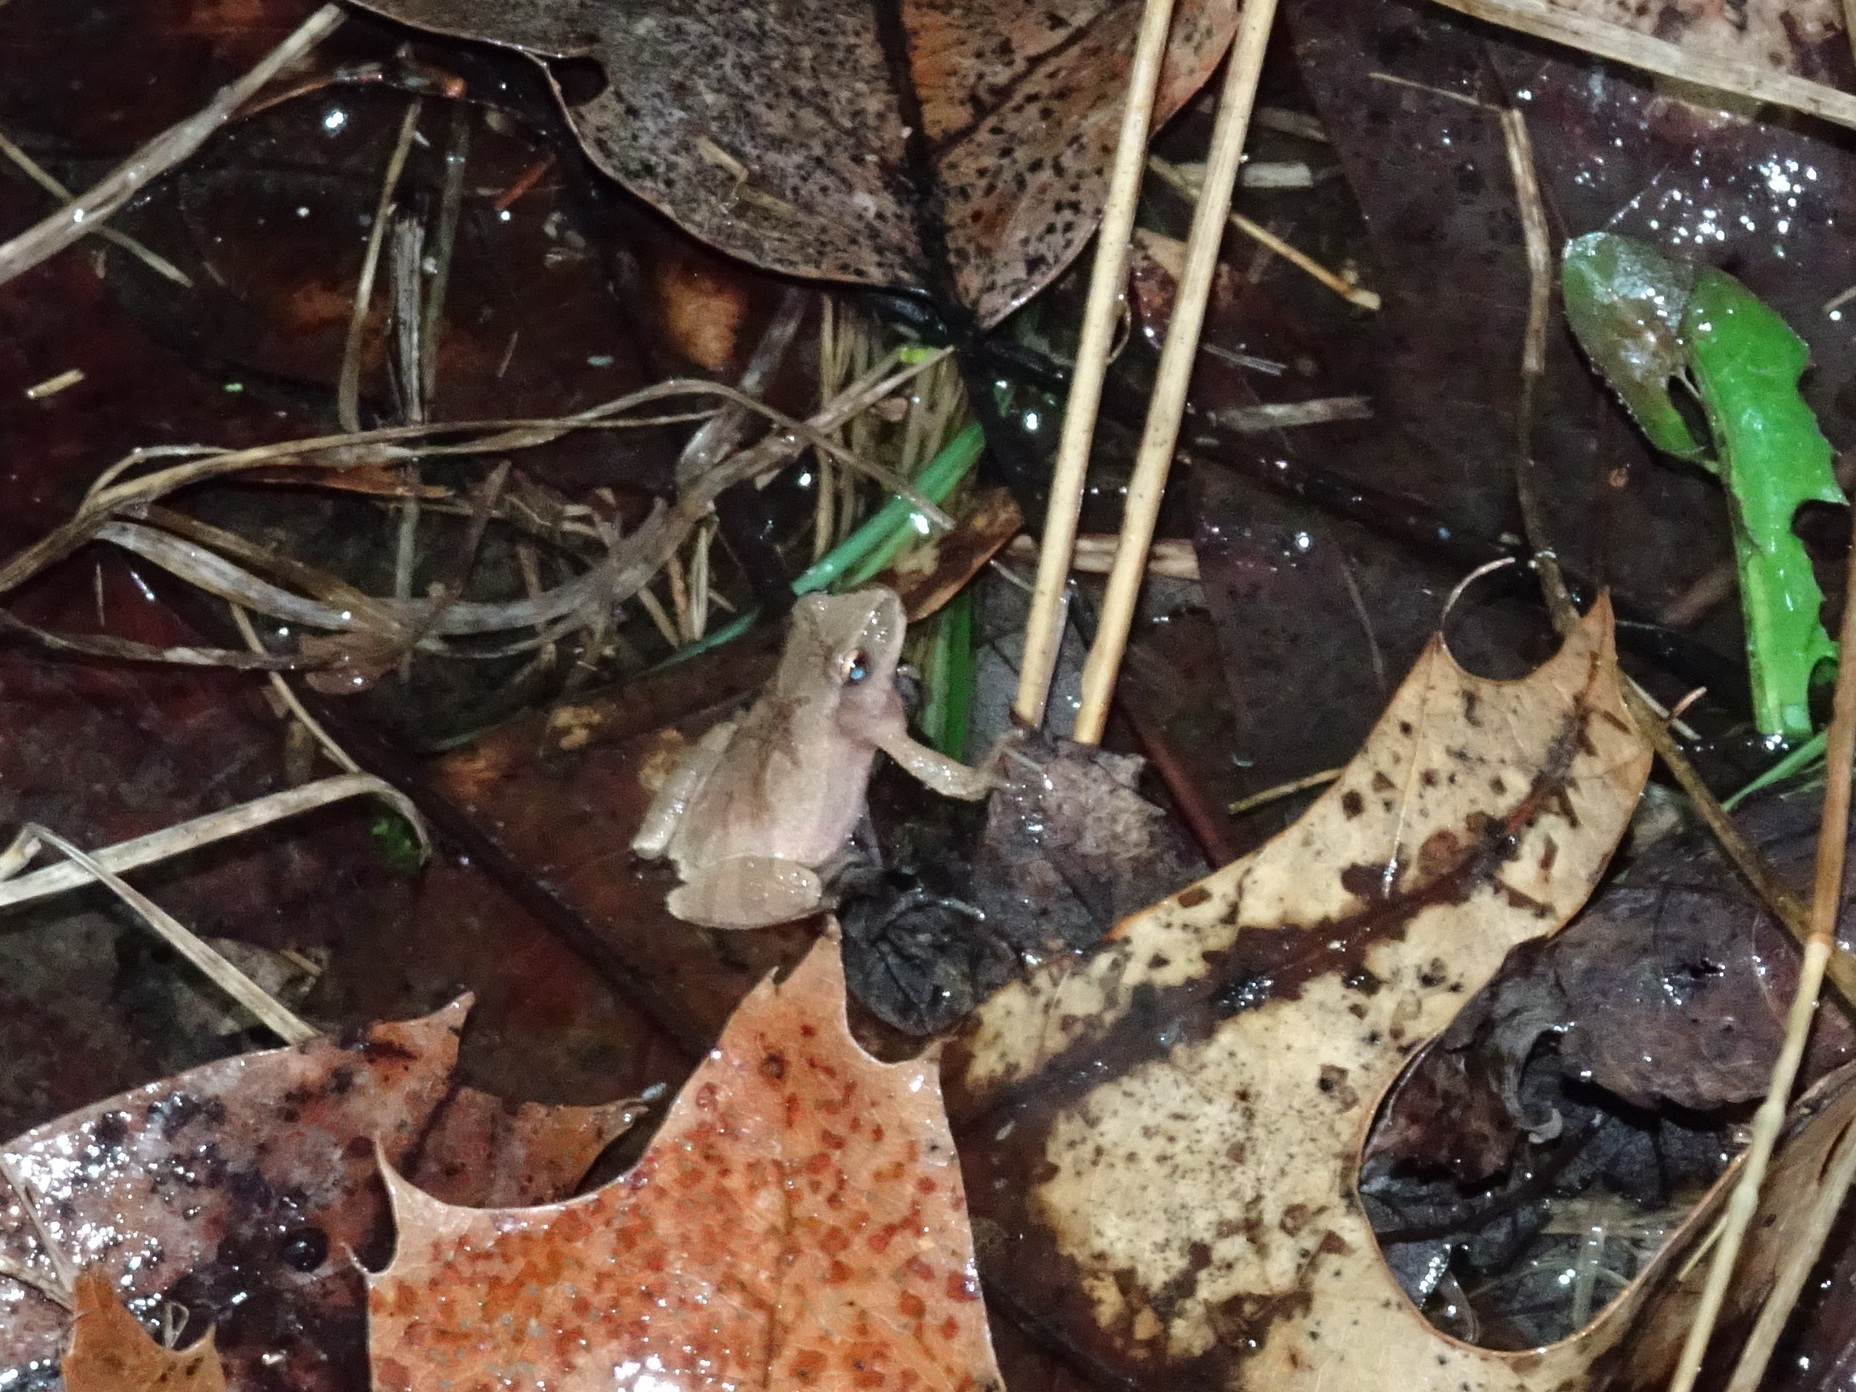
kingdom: Animalia
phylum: Chordata
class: Amphibia
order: Anura
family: Hylidae
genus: Pseudacris
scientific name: Pseudacris crucifer
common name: Spring peeper
